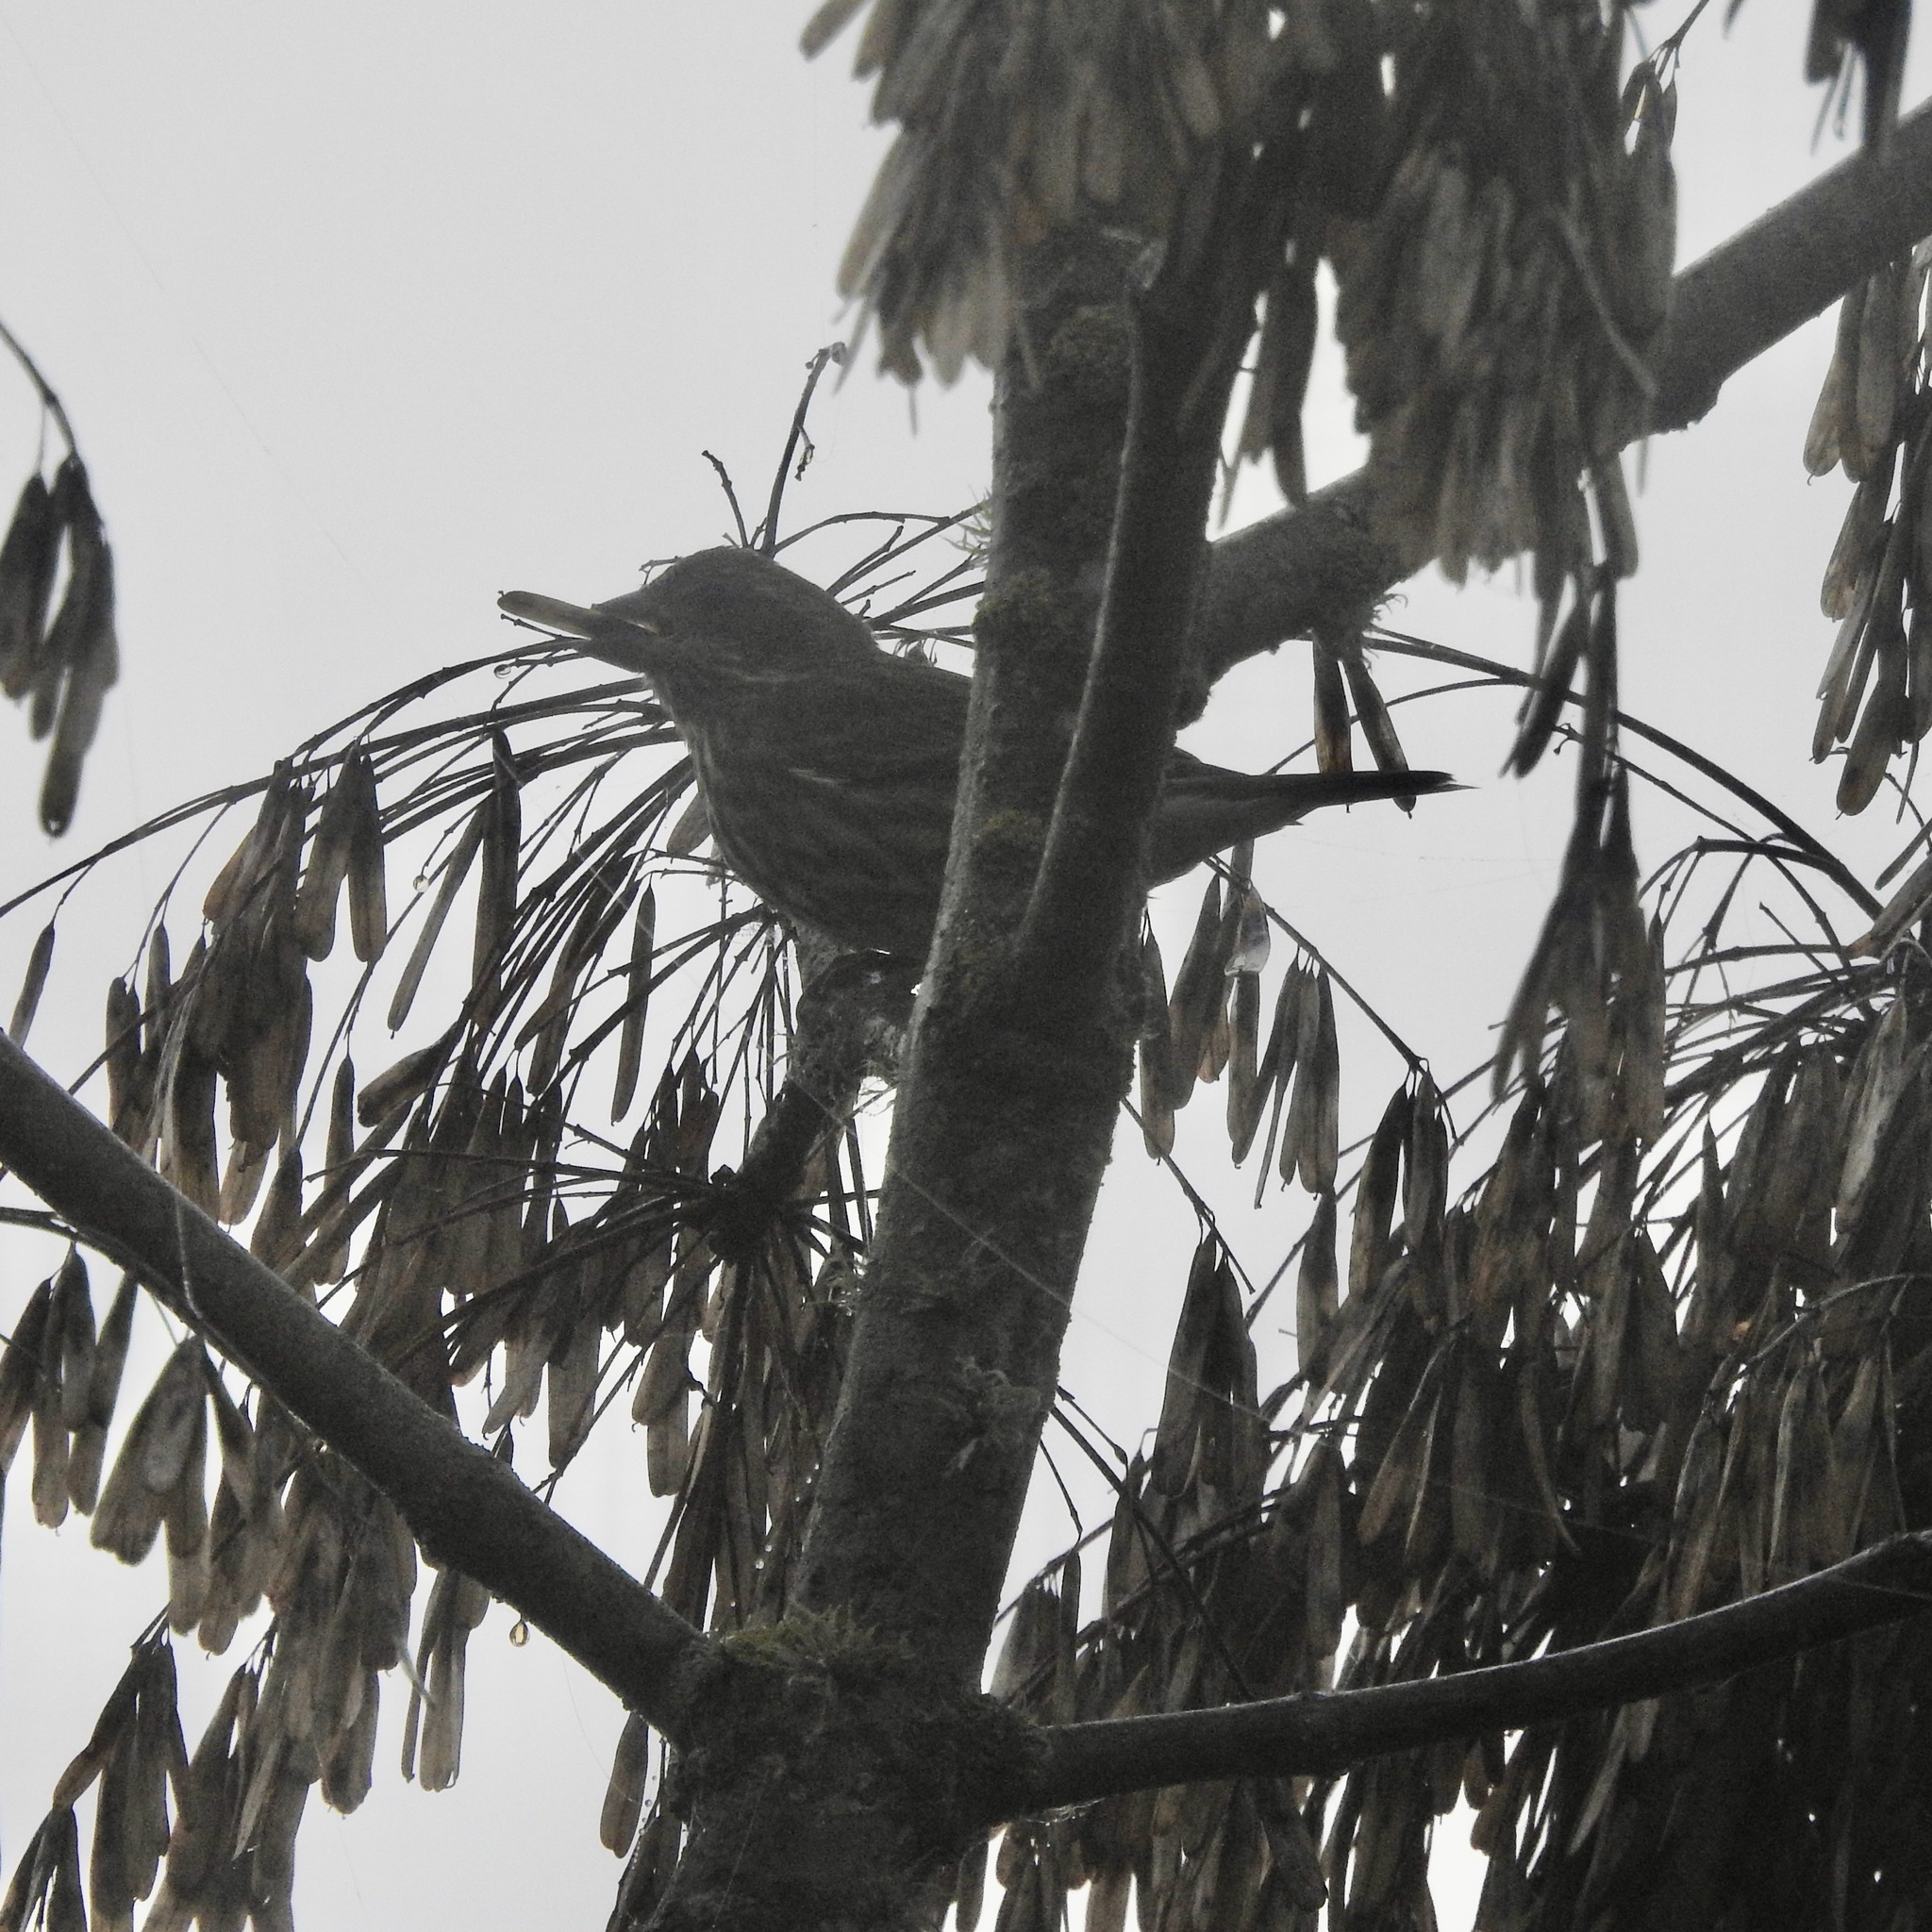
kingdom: Animalia
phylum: Chordata
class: Aves
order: Passeriformes
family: Fringillidae
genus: Haemorhous
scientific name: Haemorhous mexicanus
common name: House finch
